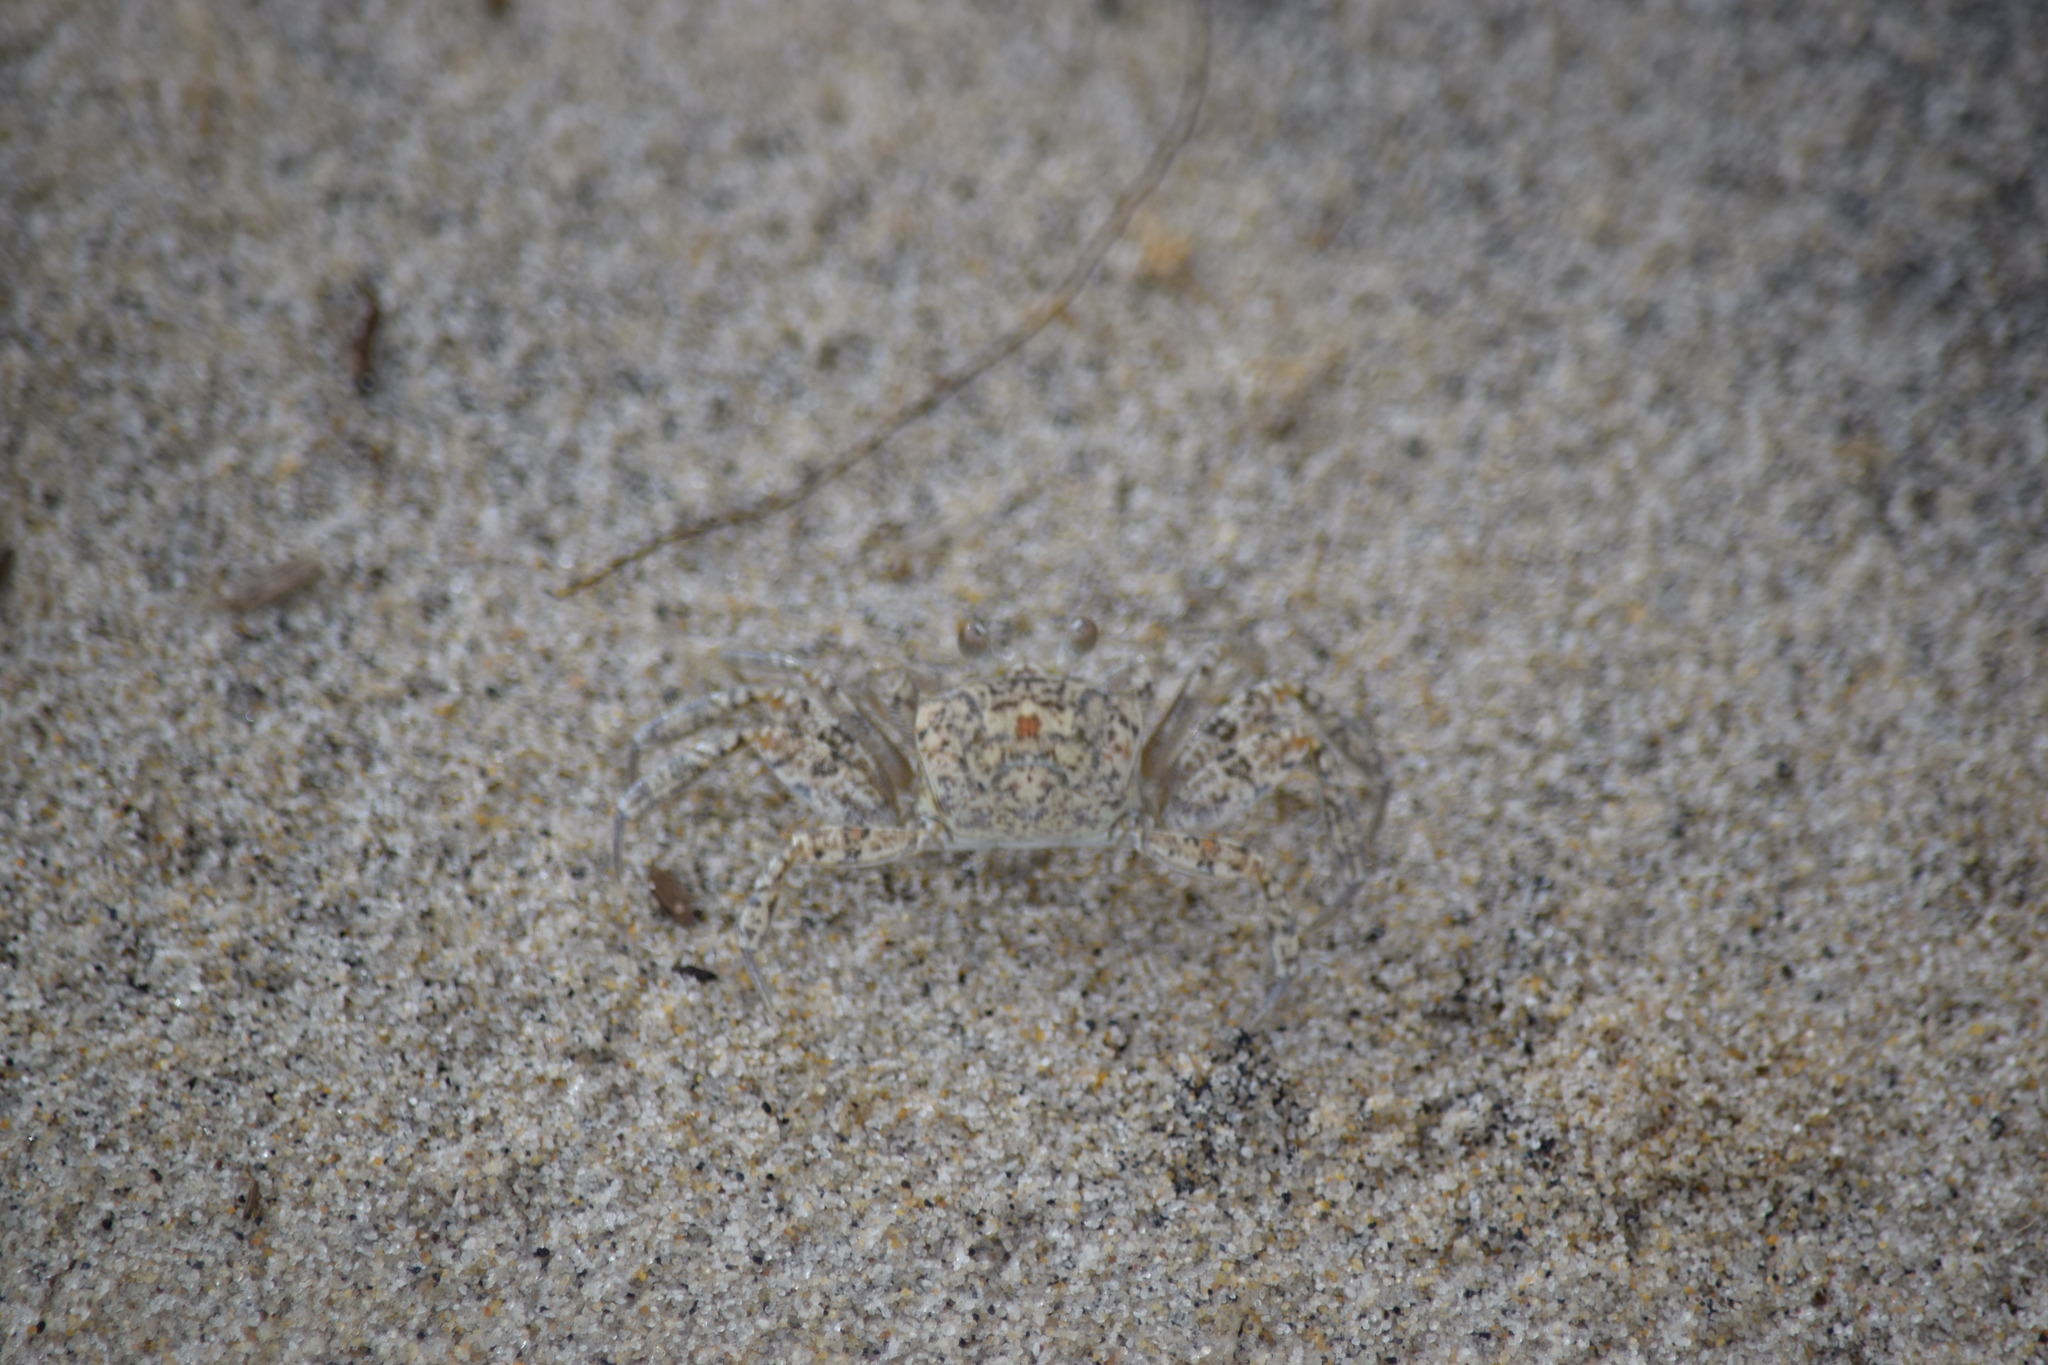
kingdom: Animalia
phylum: Arthropoda
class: Malacostraca
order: Decapoda
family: Ocypodidae
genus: Ocypode
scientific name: Ocypode quadrata
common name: Ghost crab
